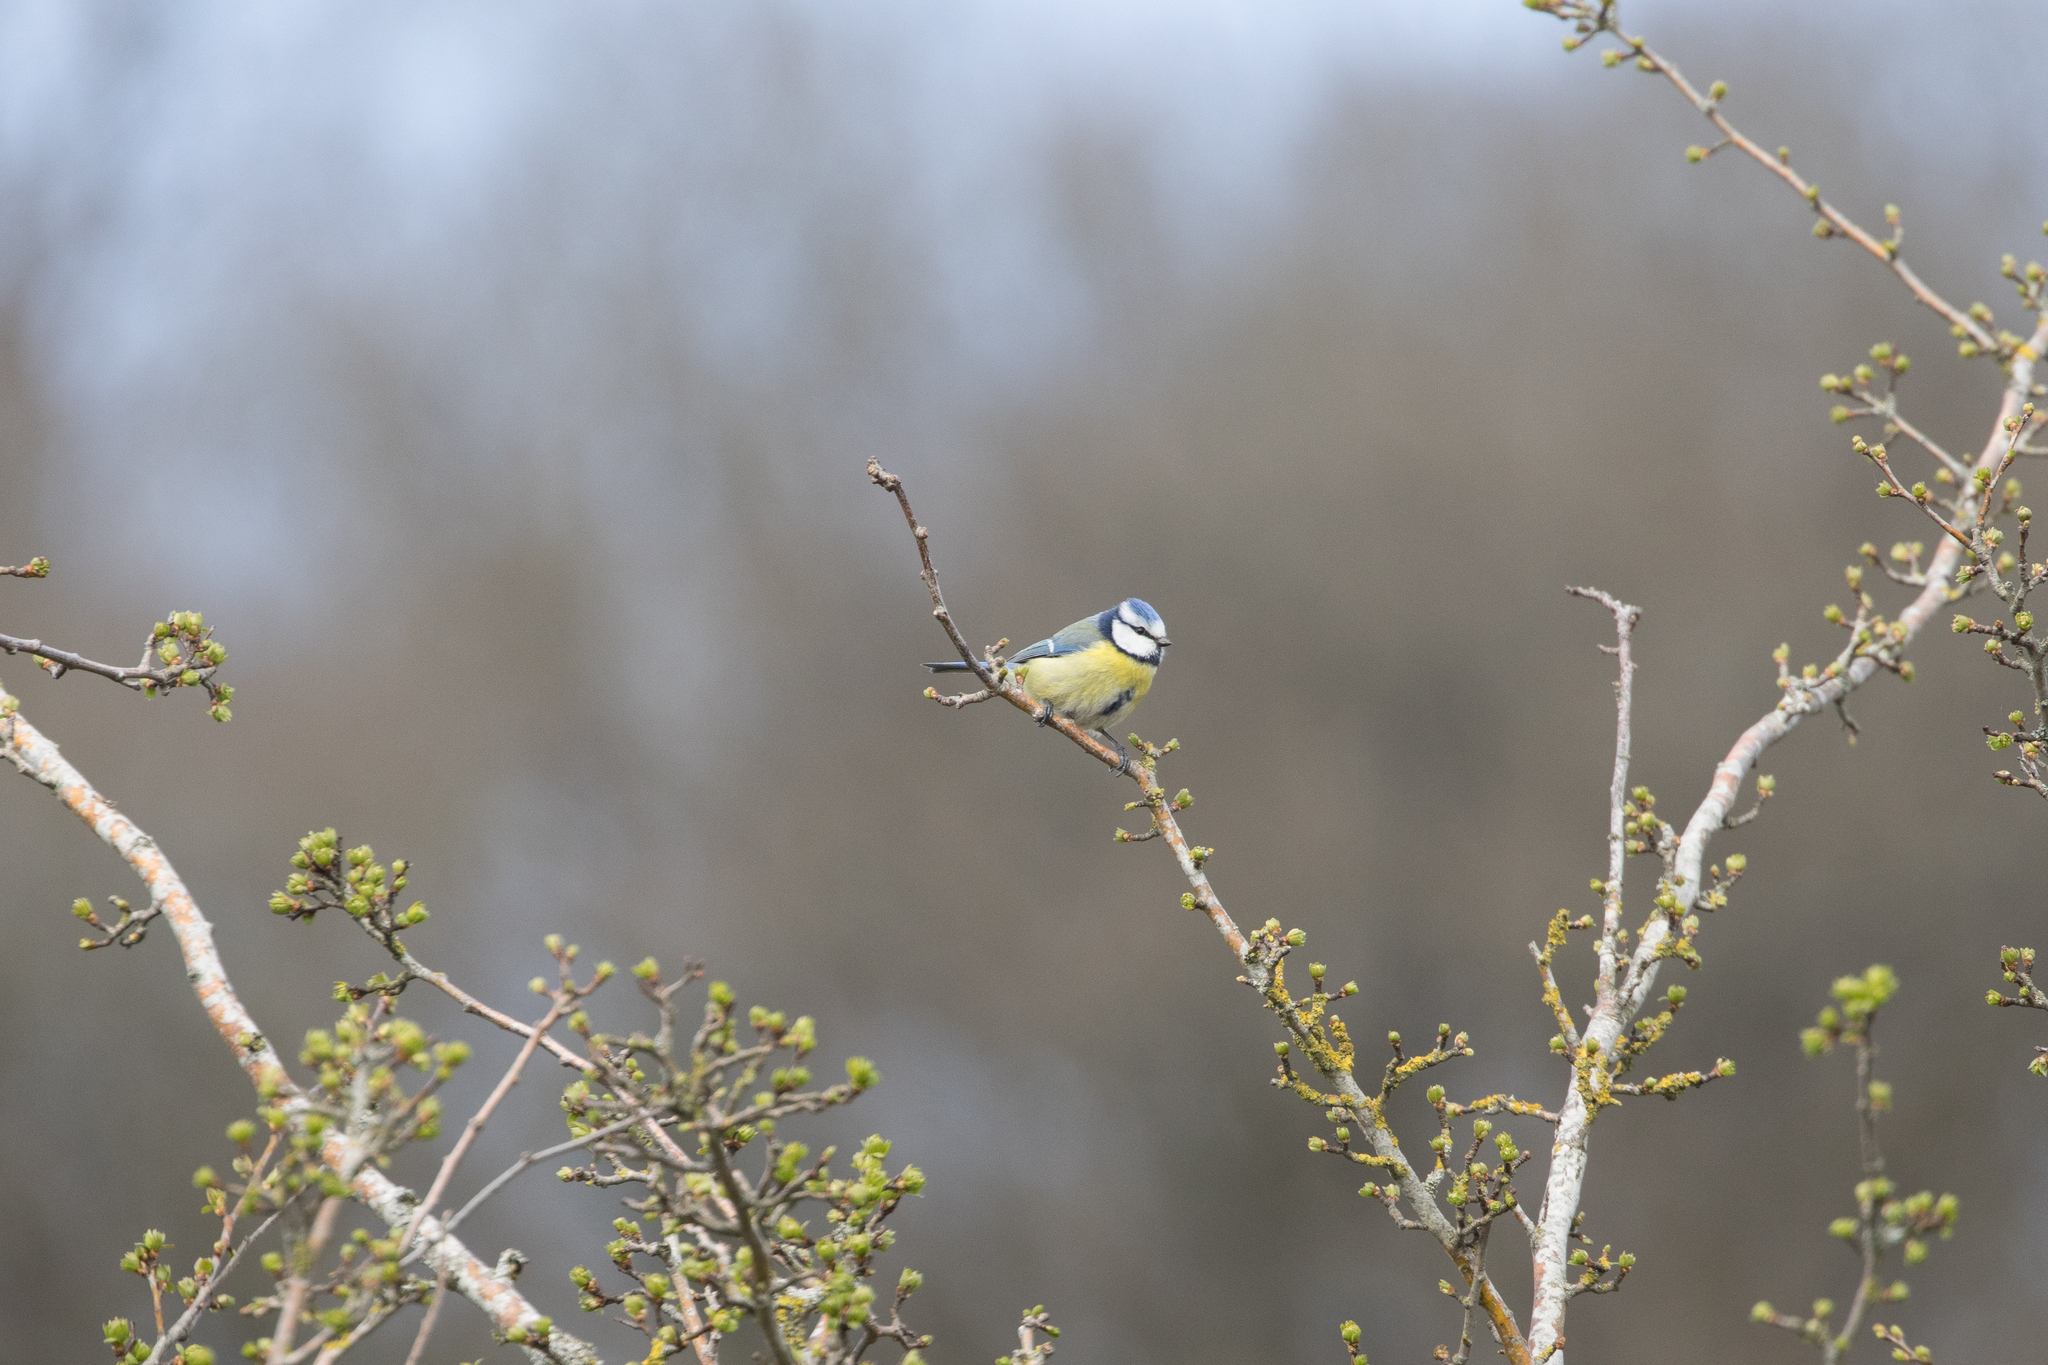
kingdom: Animalia
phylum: Chordata
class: Aves
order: Passeriformes
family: Paridae
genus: Cyanistes
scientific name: Cyanistes caeruleus
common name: Eurasian blue tit
